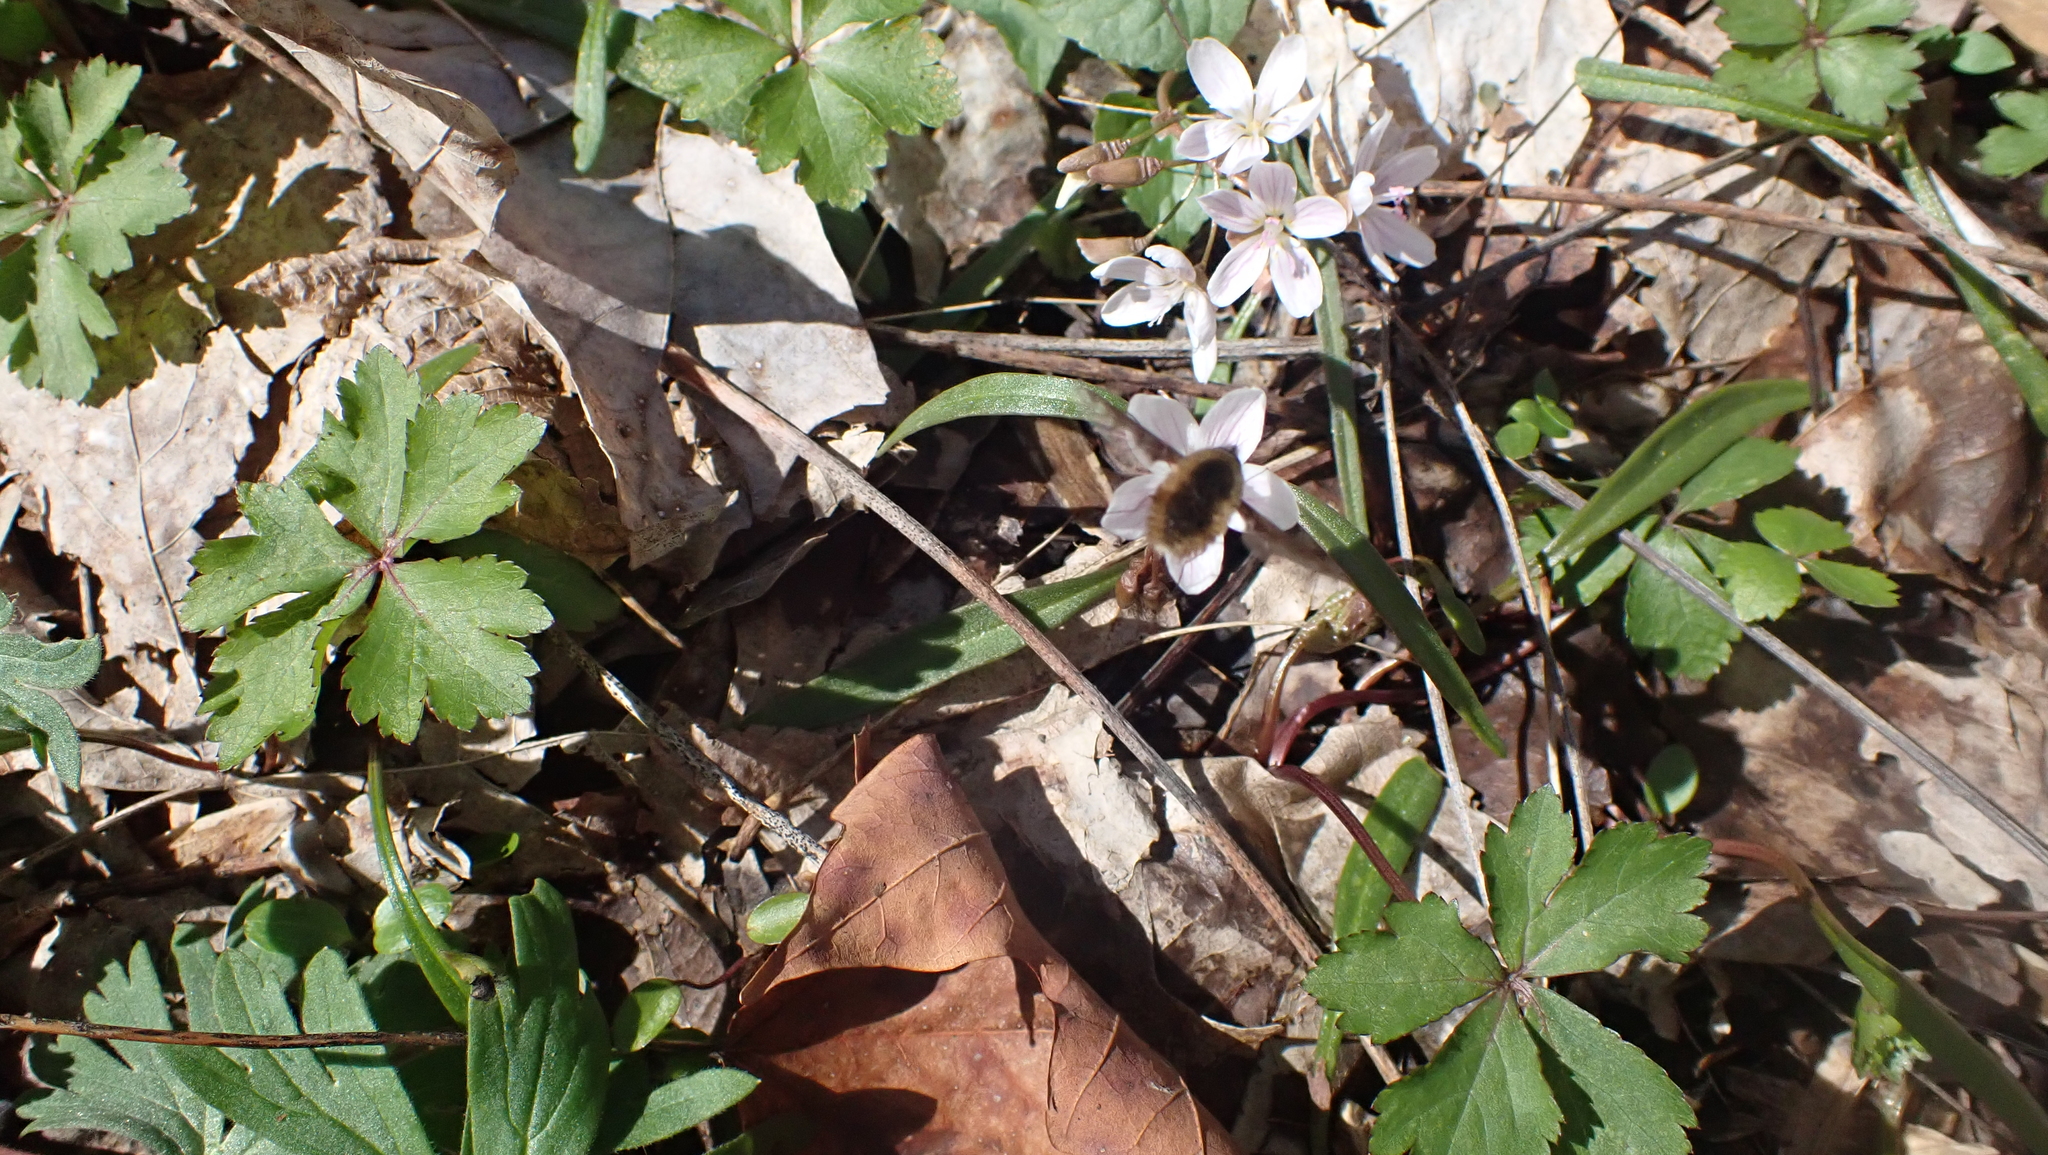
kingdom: Plantae
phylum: Tracheophyta
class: Magnoliopsida
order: Caryophyllales
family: Montiaceae
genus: Claytonia
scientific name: Claytonia virginica
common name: Virginia springbeauty
